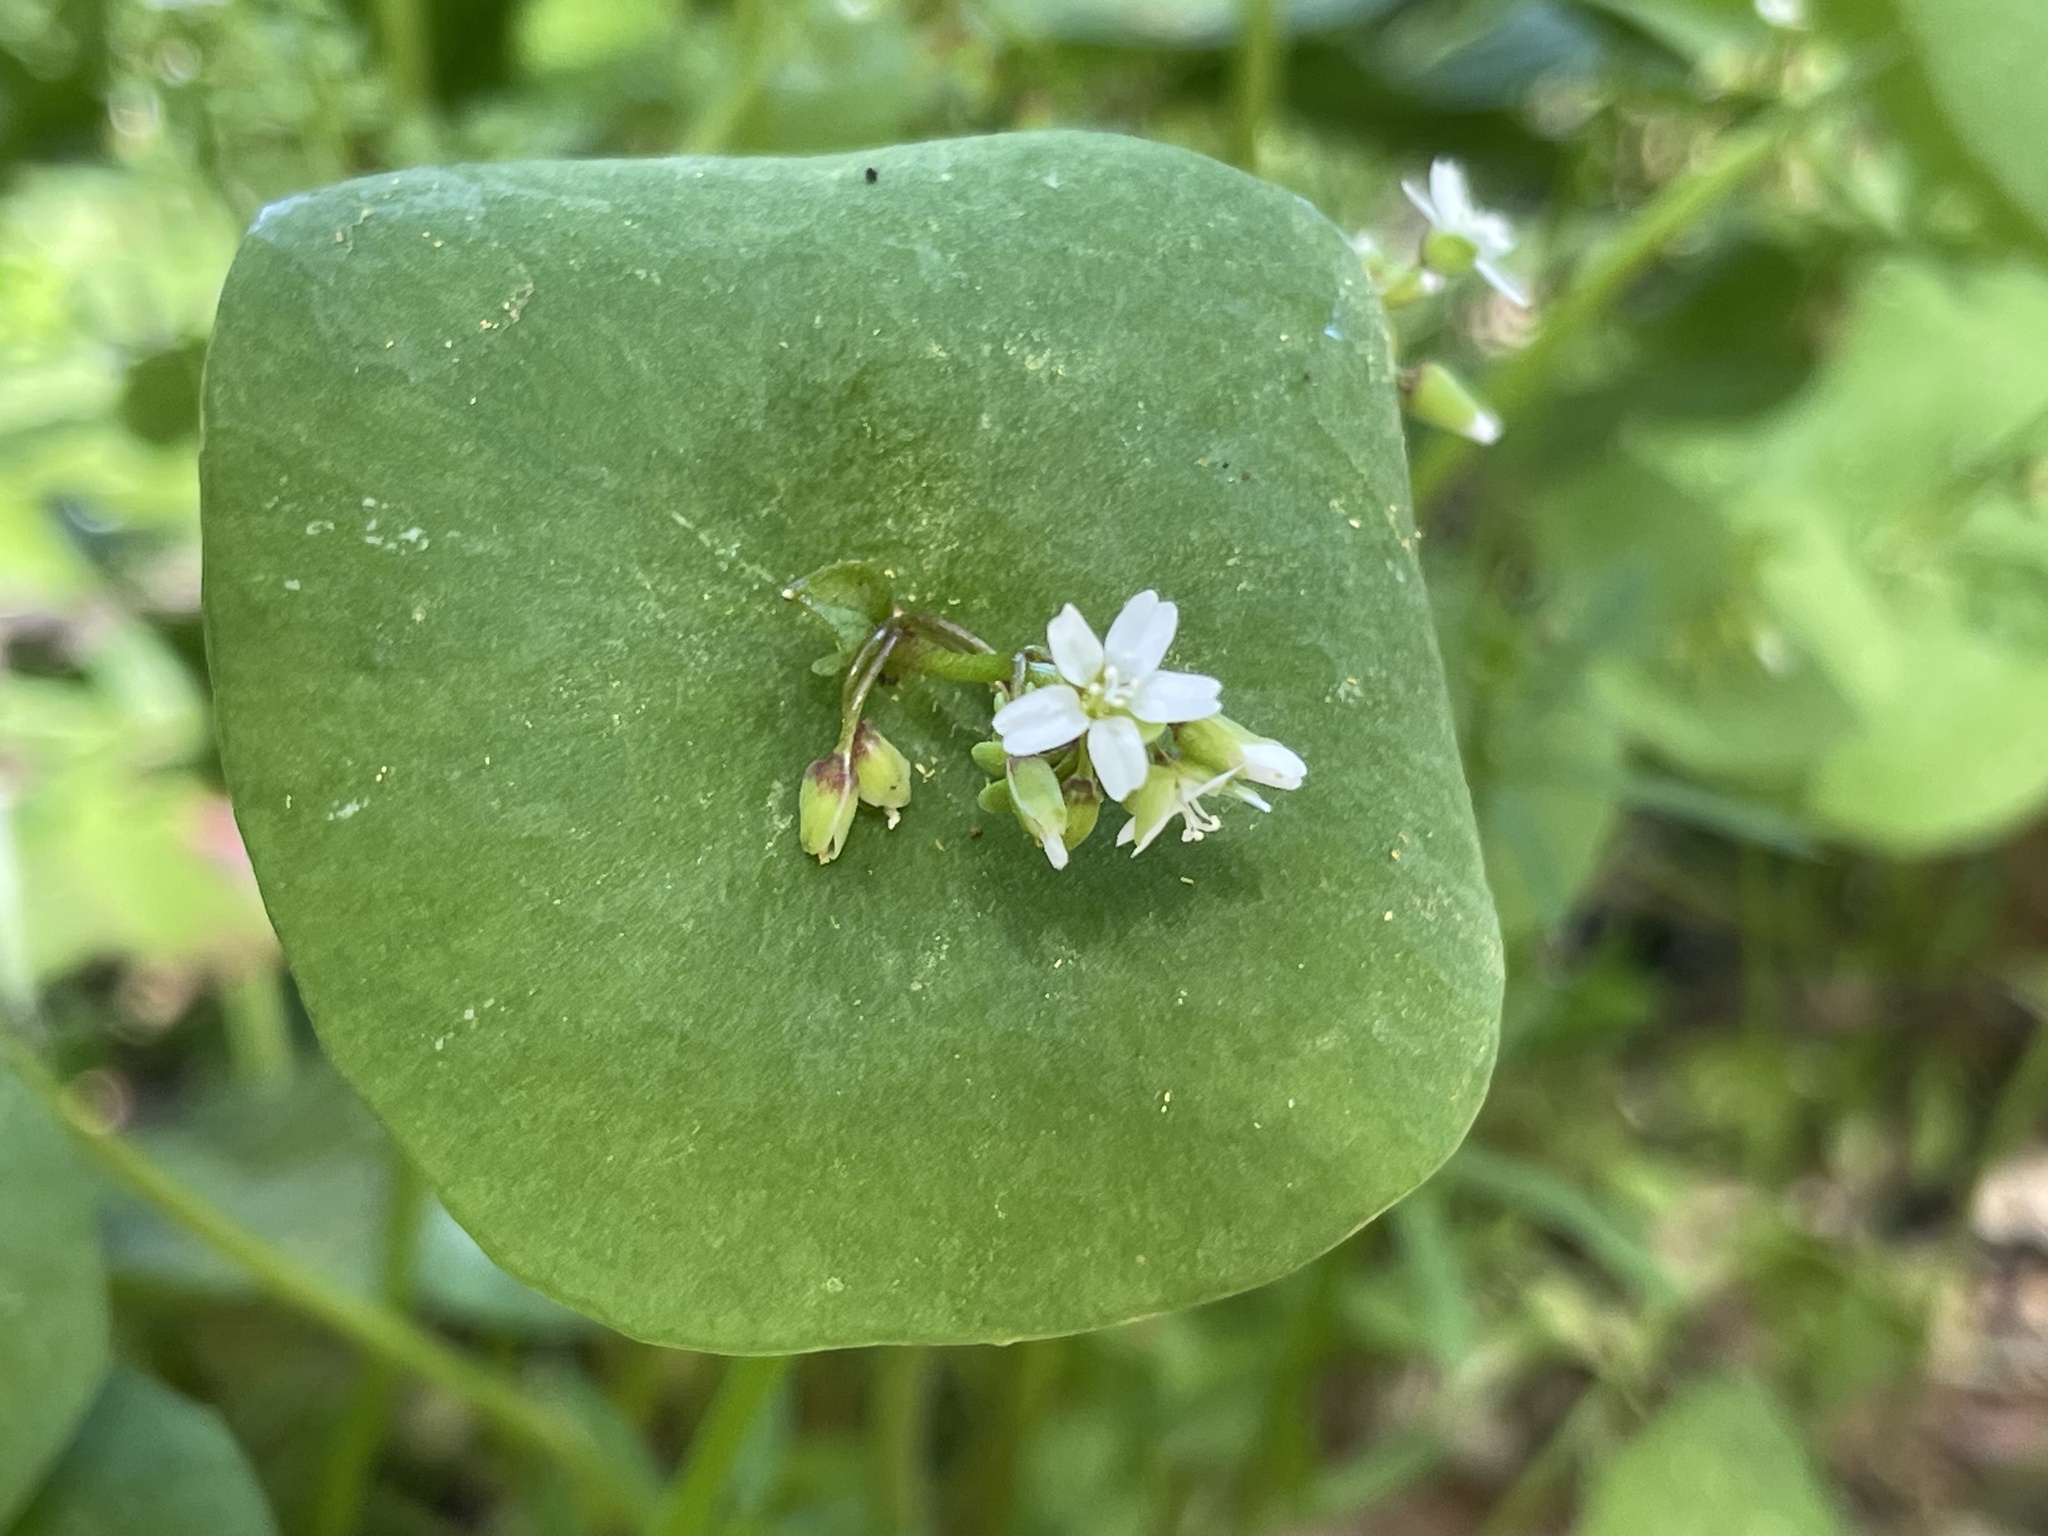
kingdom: Plantae
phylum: Tracheophyta
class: Magnoliopsida
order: Caryophyllales
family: Montiaceae
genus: Claytonia
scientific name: Claytonia perfoliata
